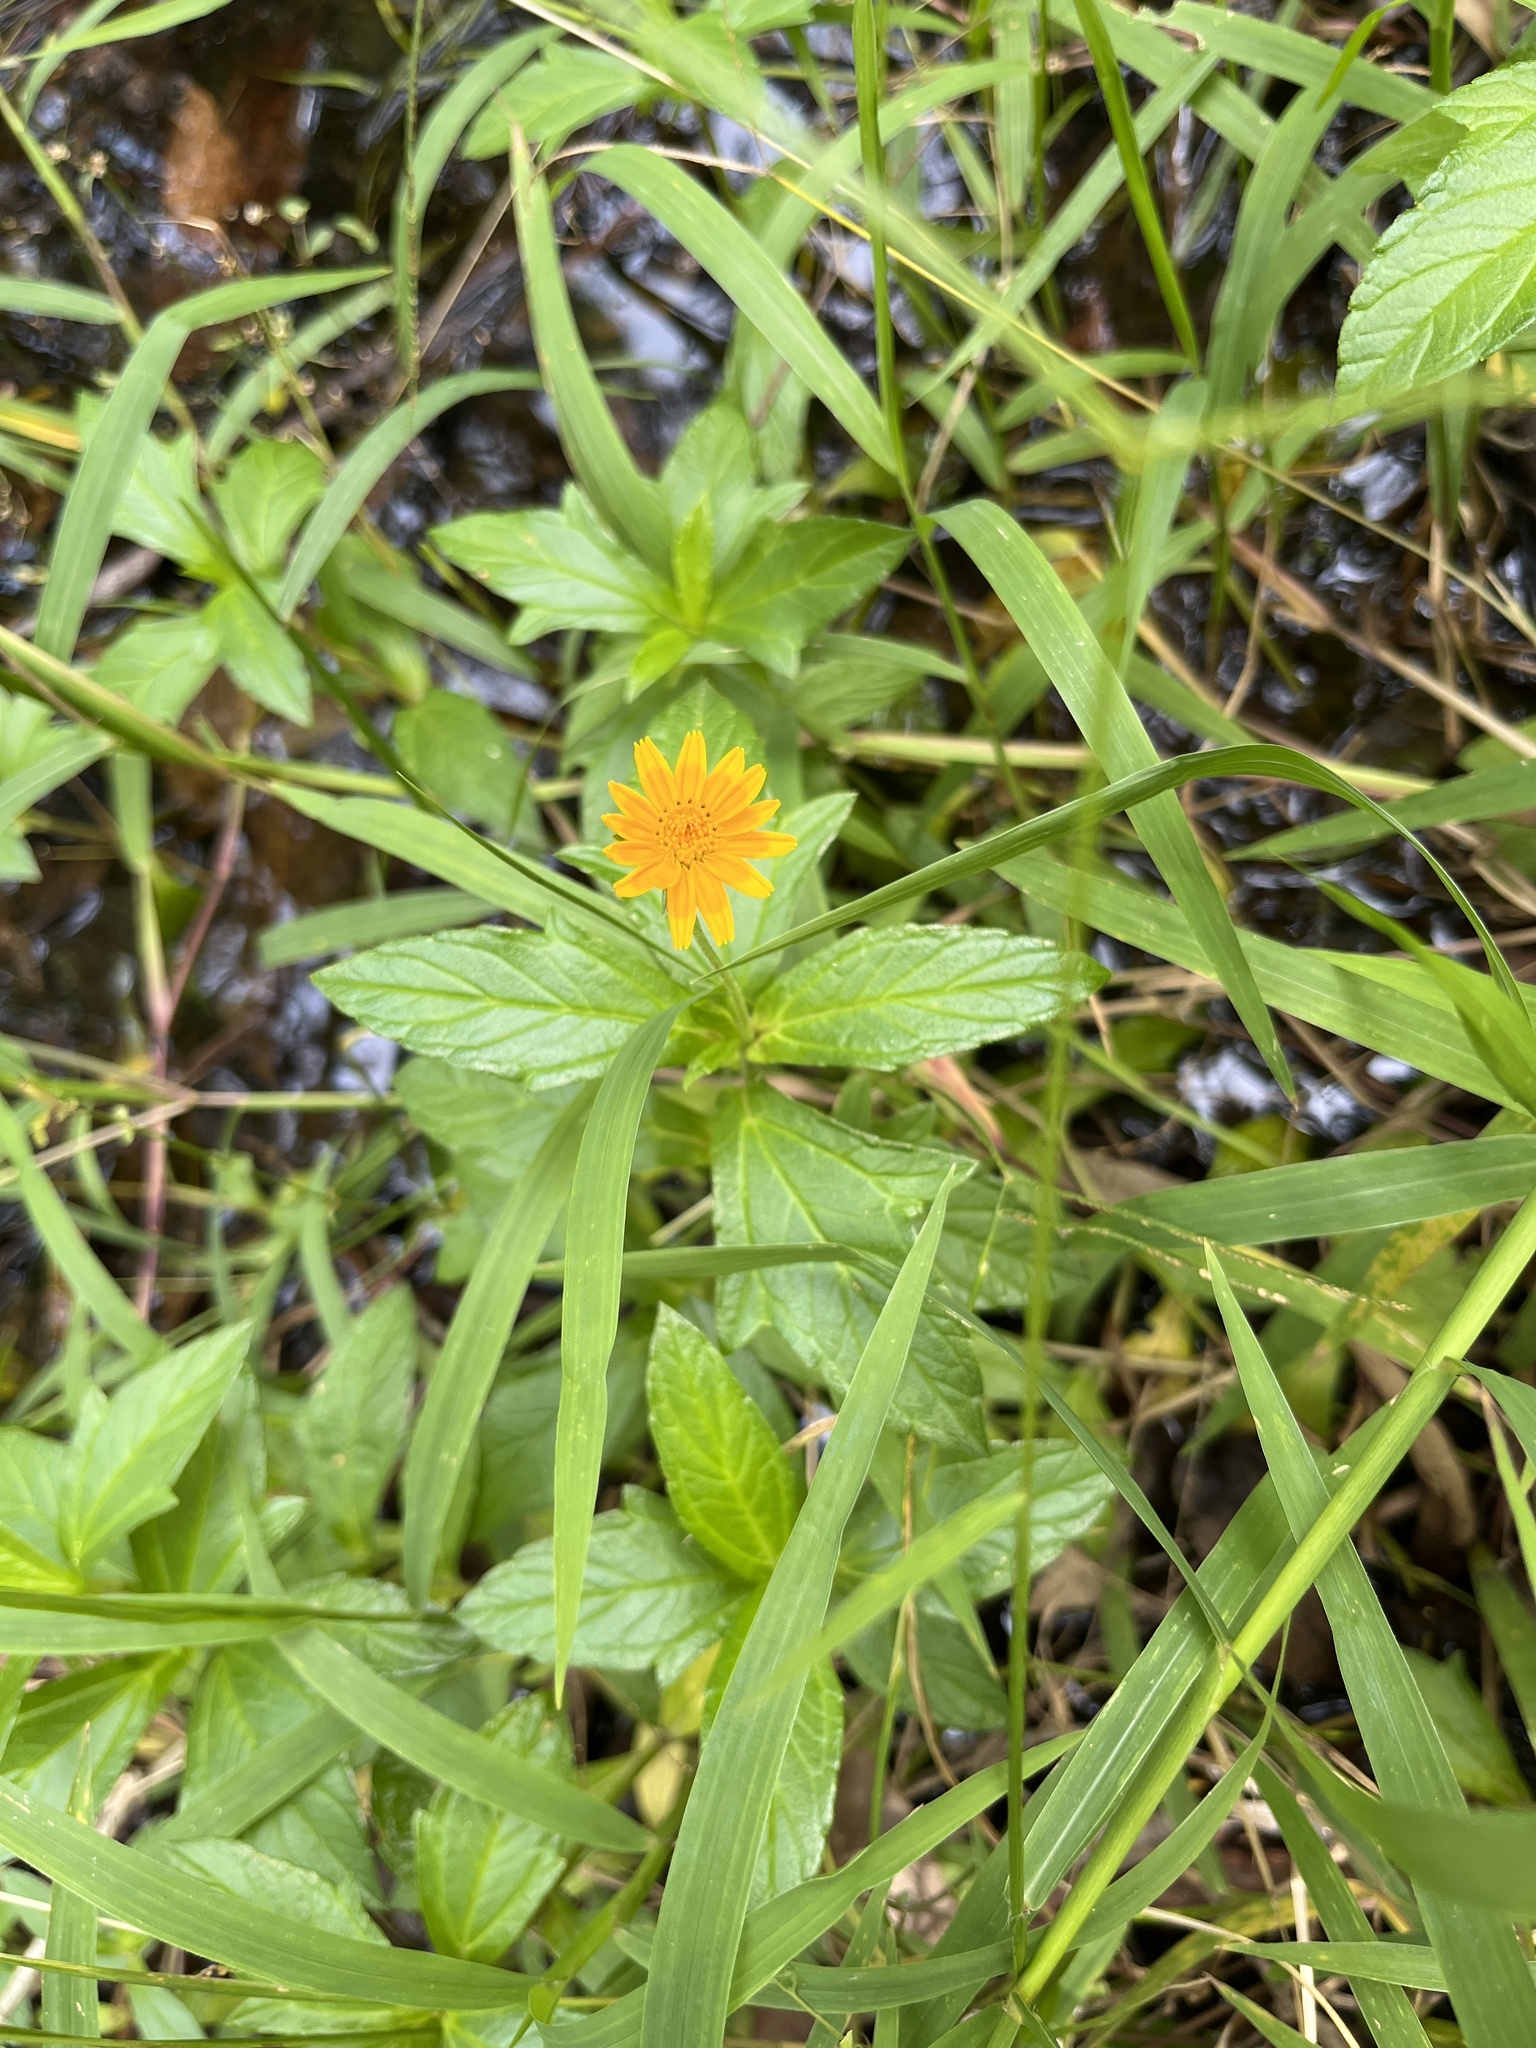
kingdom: Plantae
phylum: Tracheophyta
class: Magnoliopsida
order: Asterales
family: Asteraceae
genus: Sphagneticola
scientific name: Sphagneticola trilobata
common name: Bay biscayne creeping-oxeye
